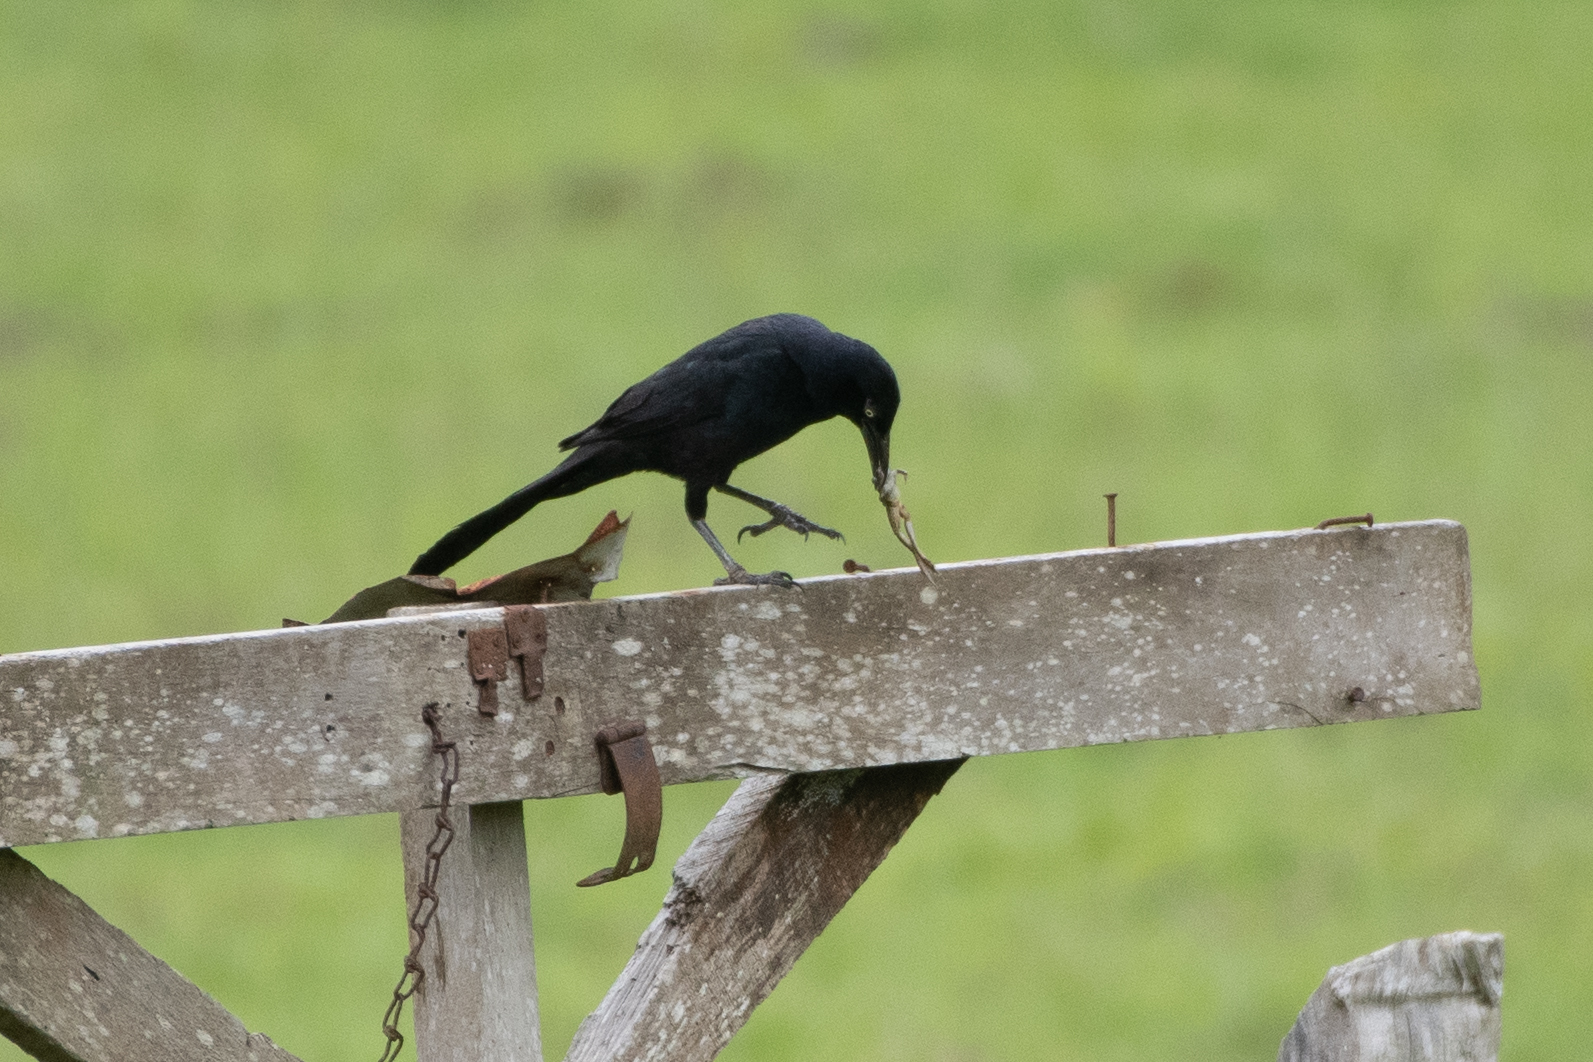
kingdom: Animalia
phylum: Chordata
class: Aves
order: Passeriformes
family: Icteridae
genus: Quiscalus
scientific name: Quiscalus mexicanus
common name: Great-tailed grackle
